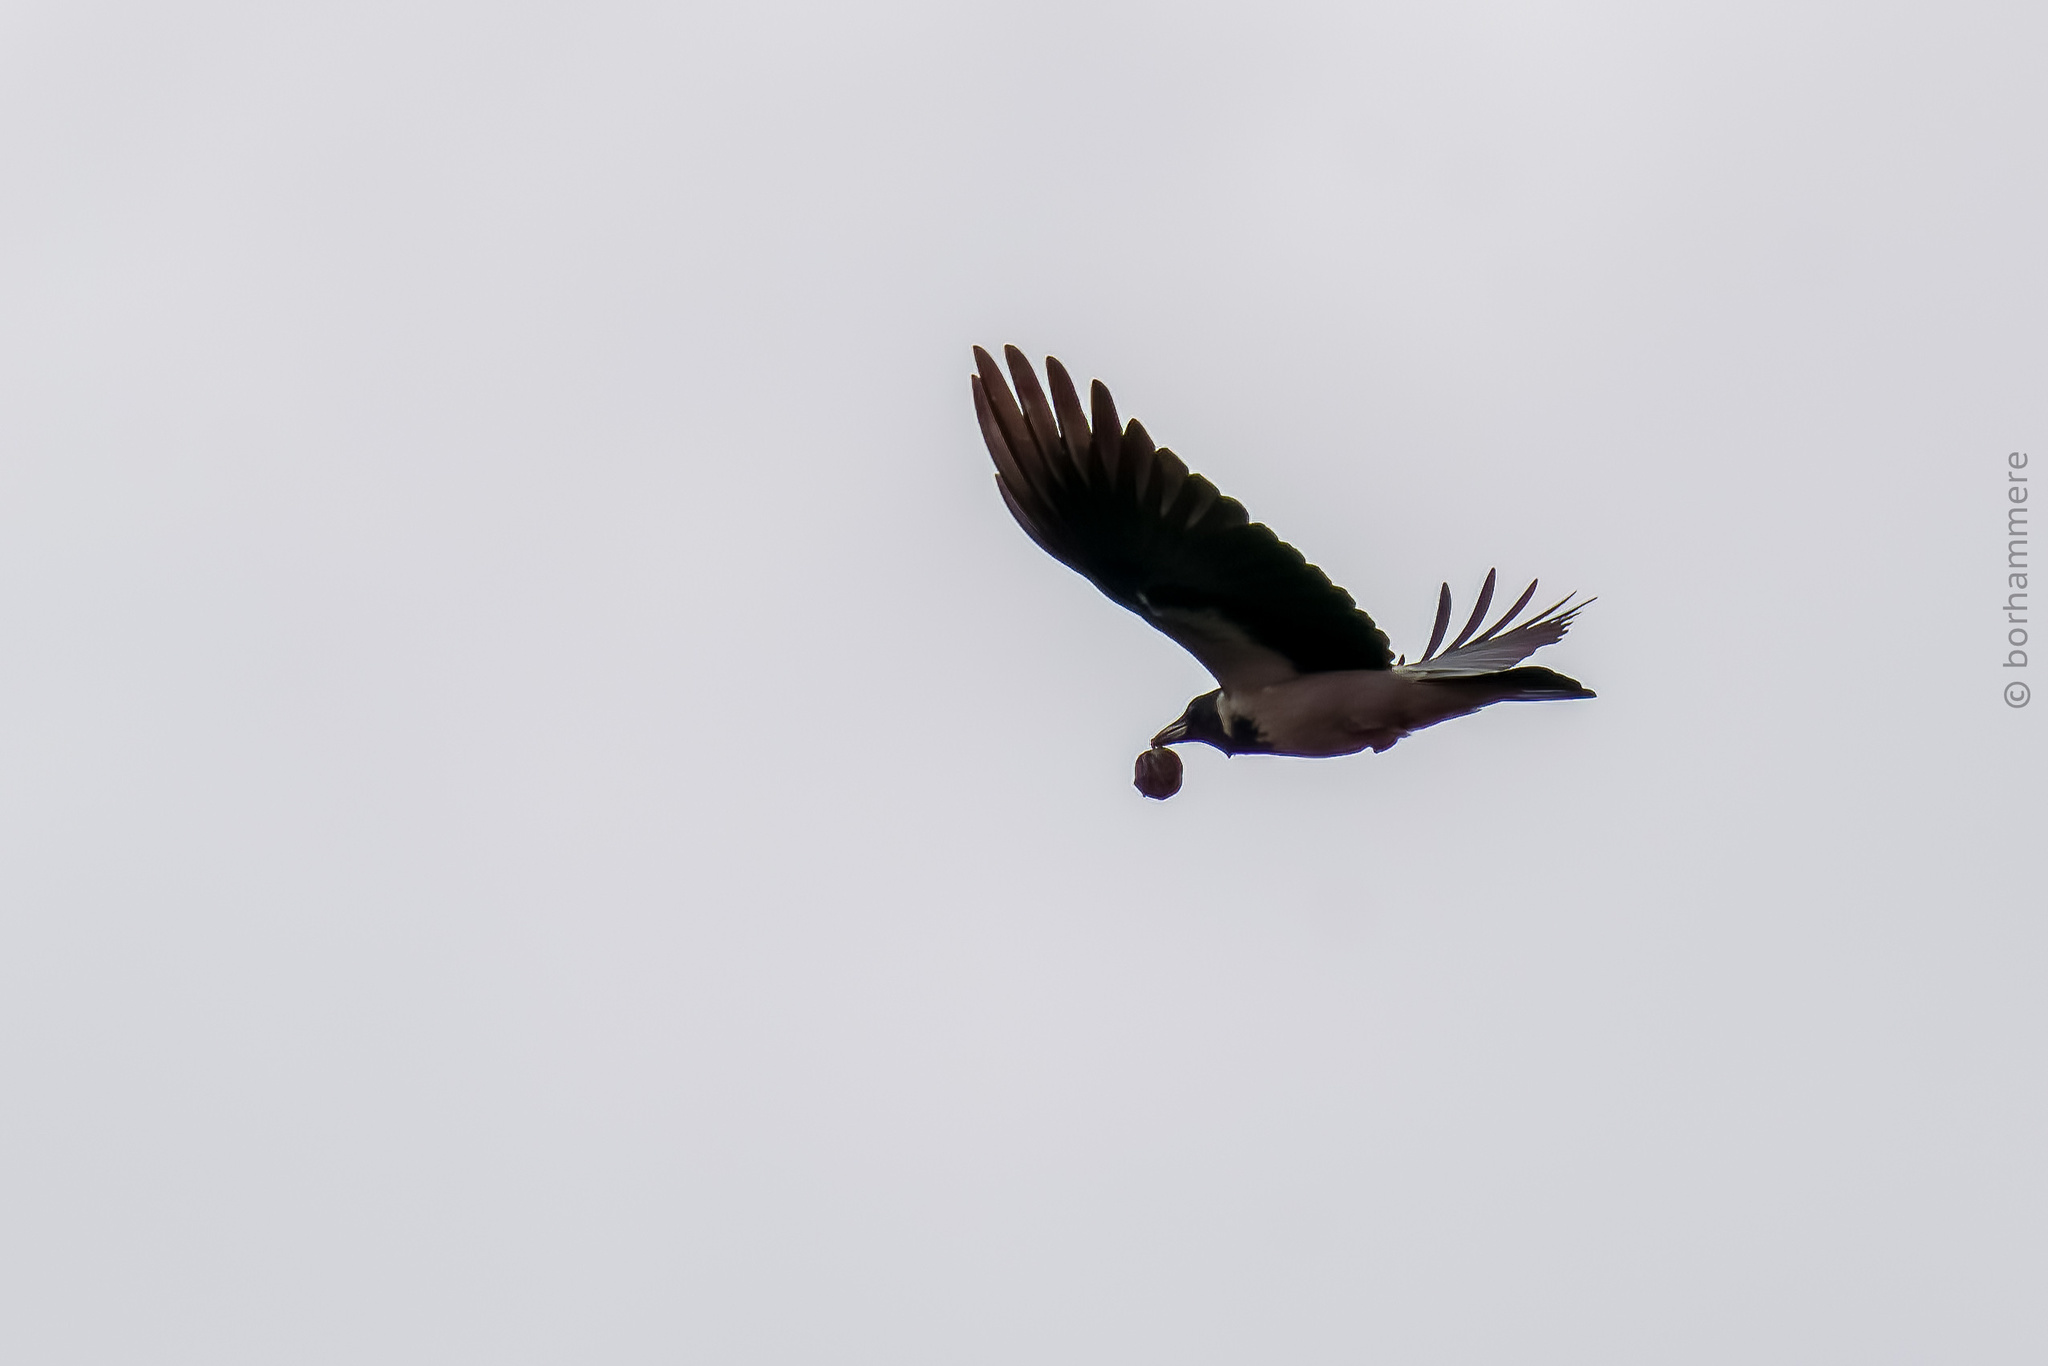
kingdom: Animalia
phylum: Chordata
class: Aves
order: Passeriformes
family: Corvidae
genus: Corvus
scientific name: Corvus cornix
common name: Hooded crow
